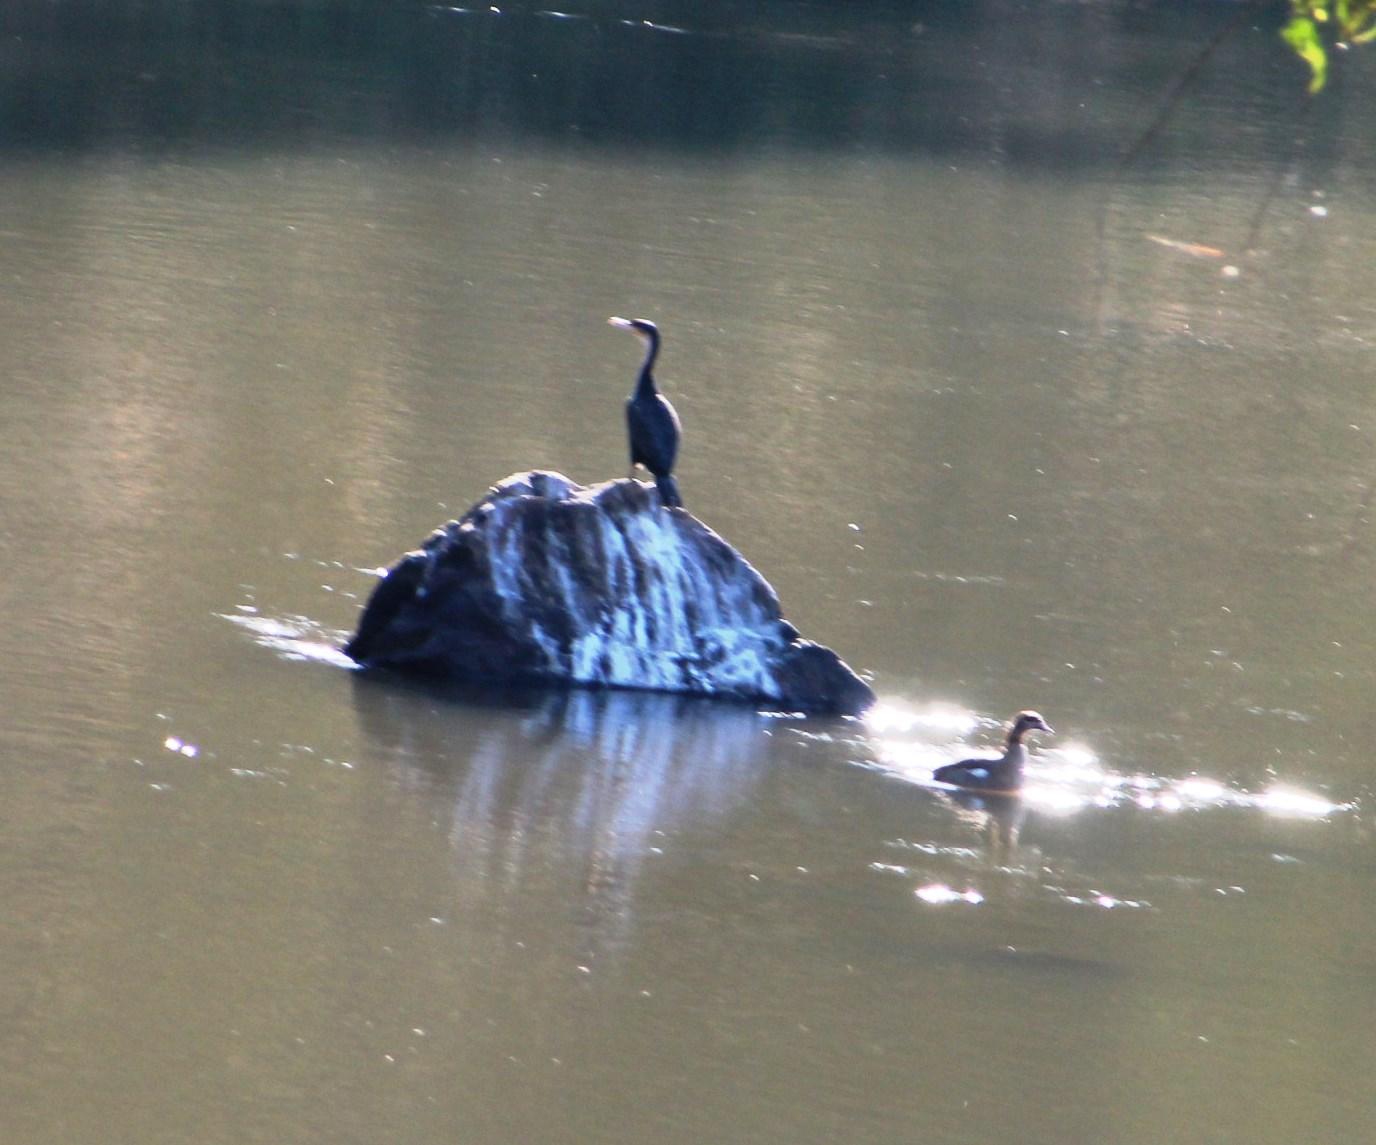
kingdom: Animalia
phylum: Chordata
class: Aves
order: Suliformes
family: Phalacrocoracidae
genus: Phalacrocorax
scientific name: Phalacrocorax carbo
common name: Great cormorant
